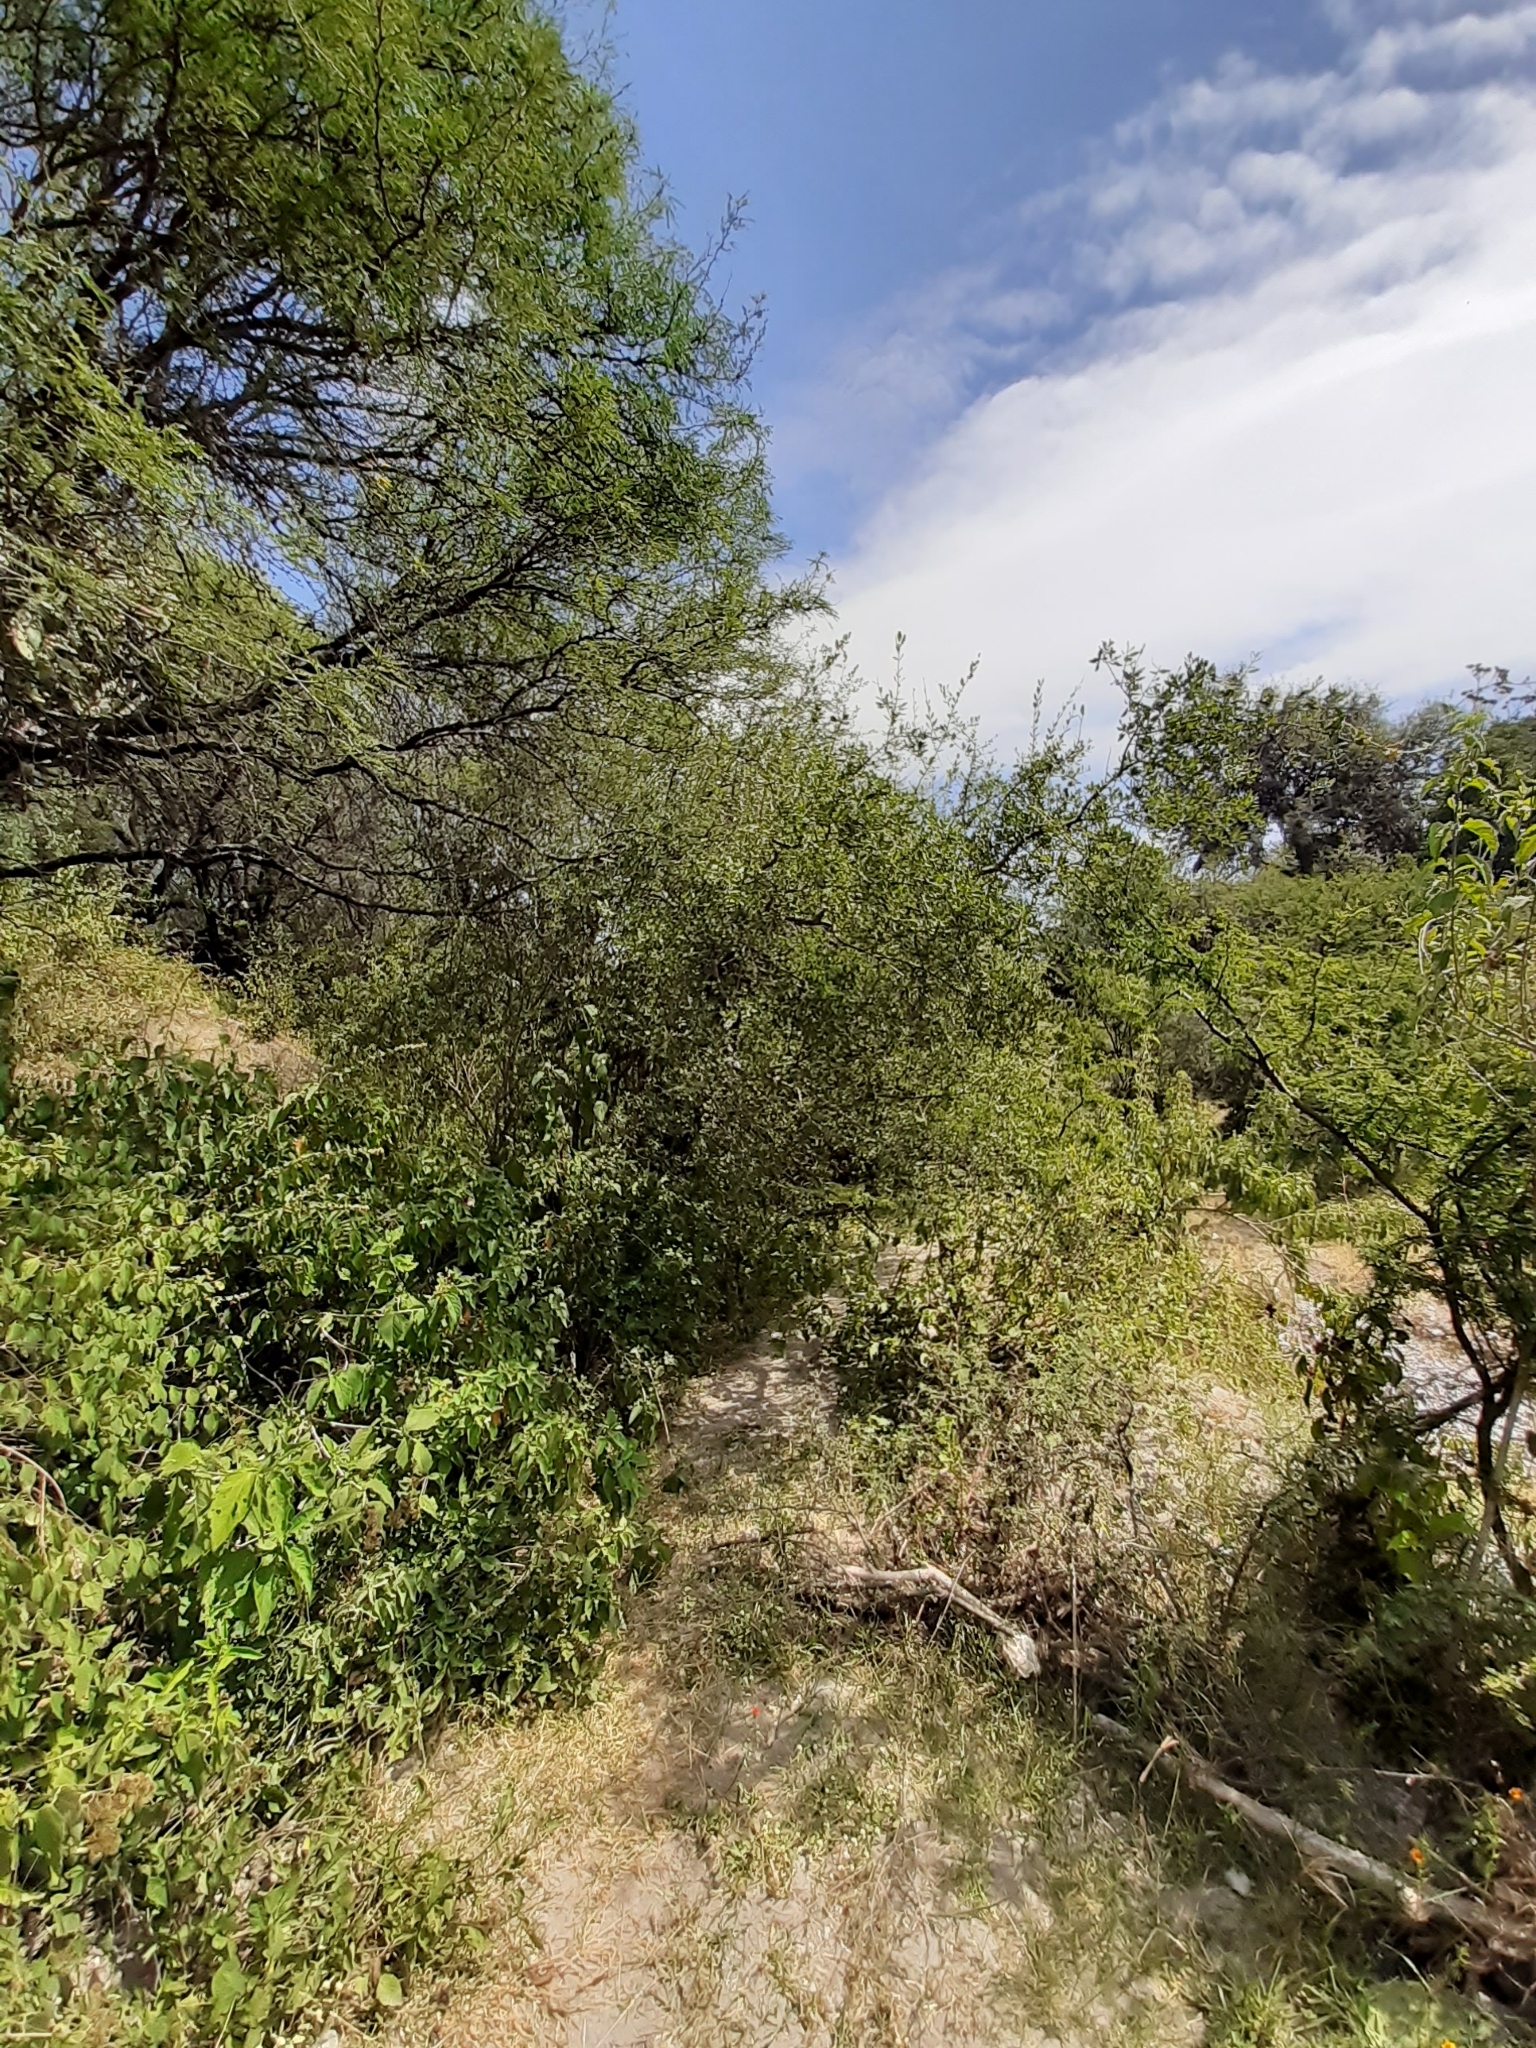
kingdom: Plantae
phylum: Tracheophyta
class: Magnoliopsida
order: Lamiales
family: Oleaceae
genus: Forestiera
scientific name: Forestiera phillyreoides
